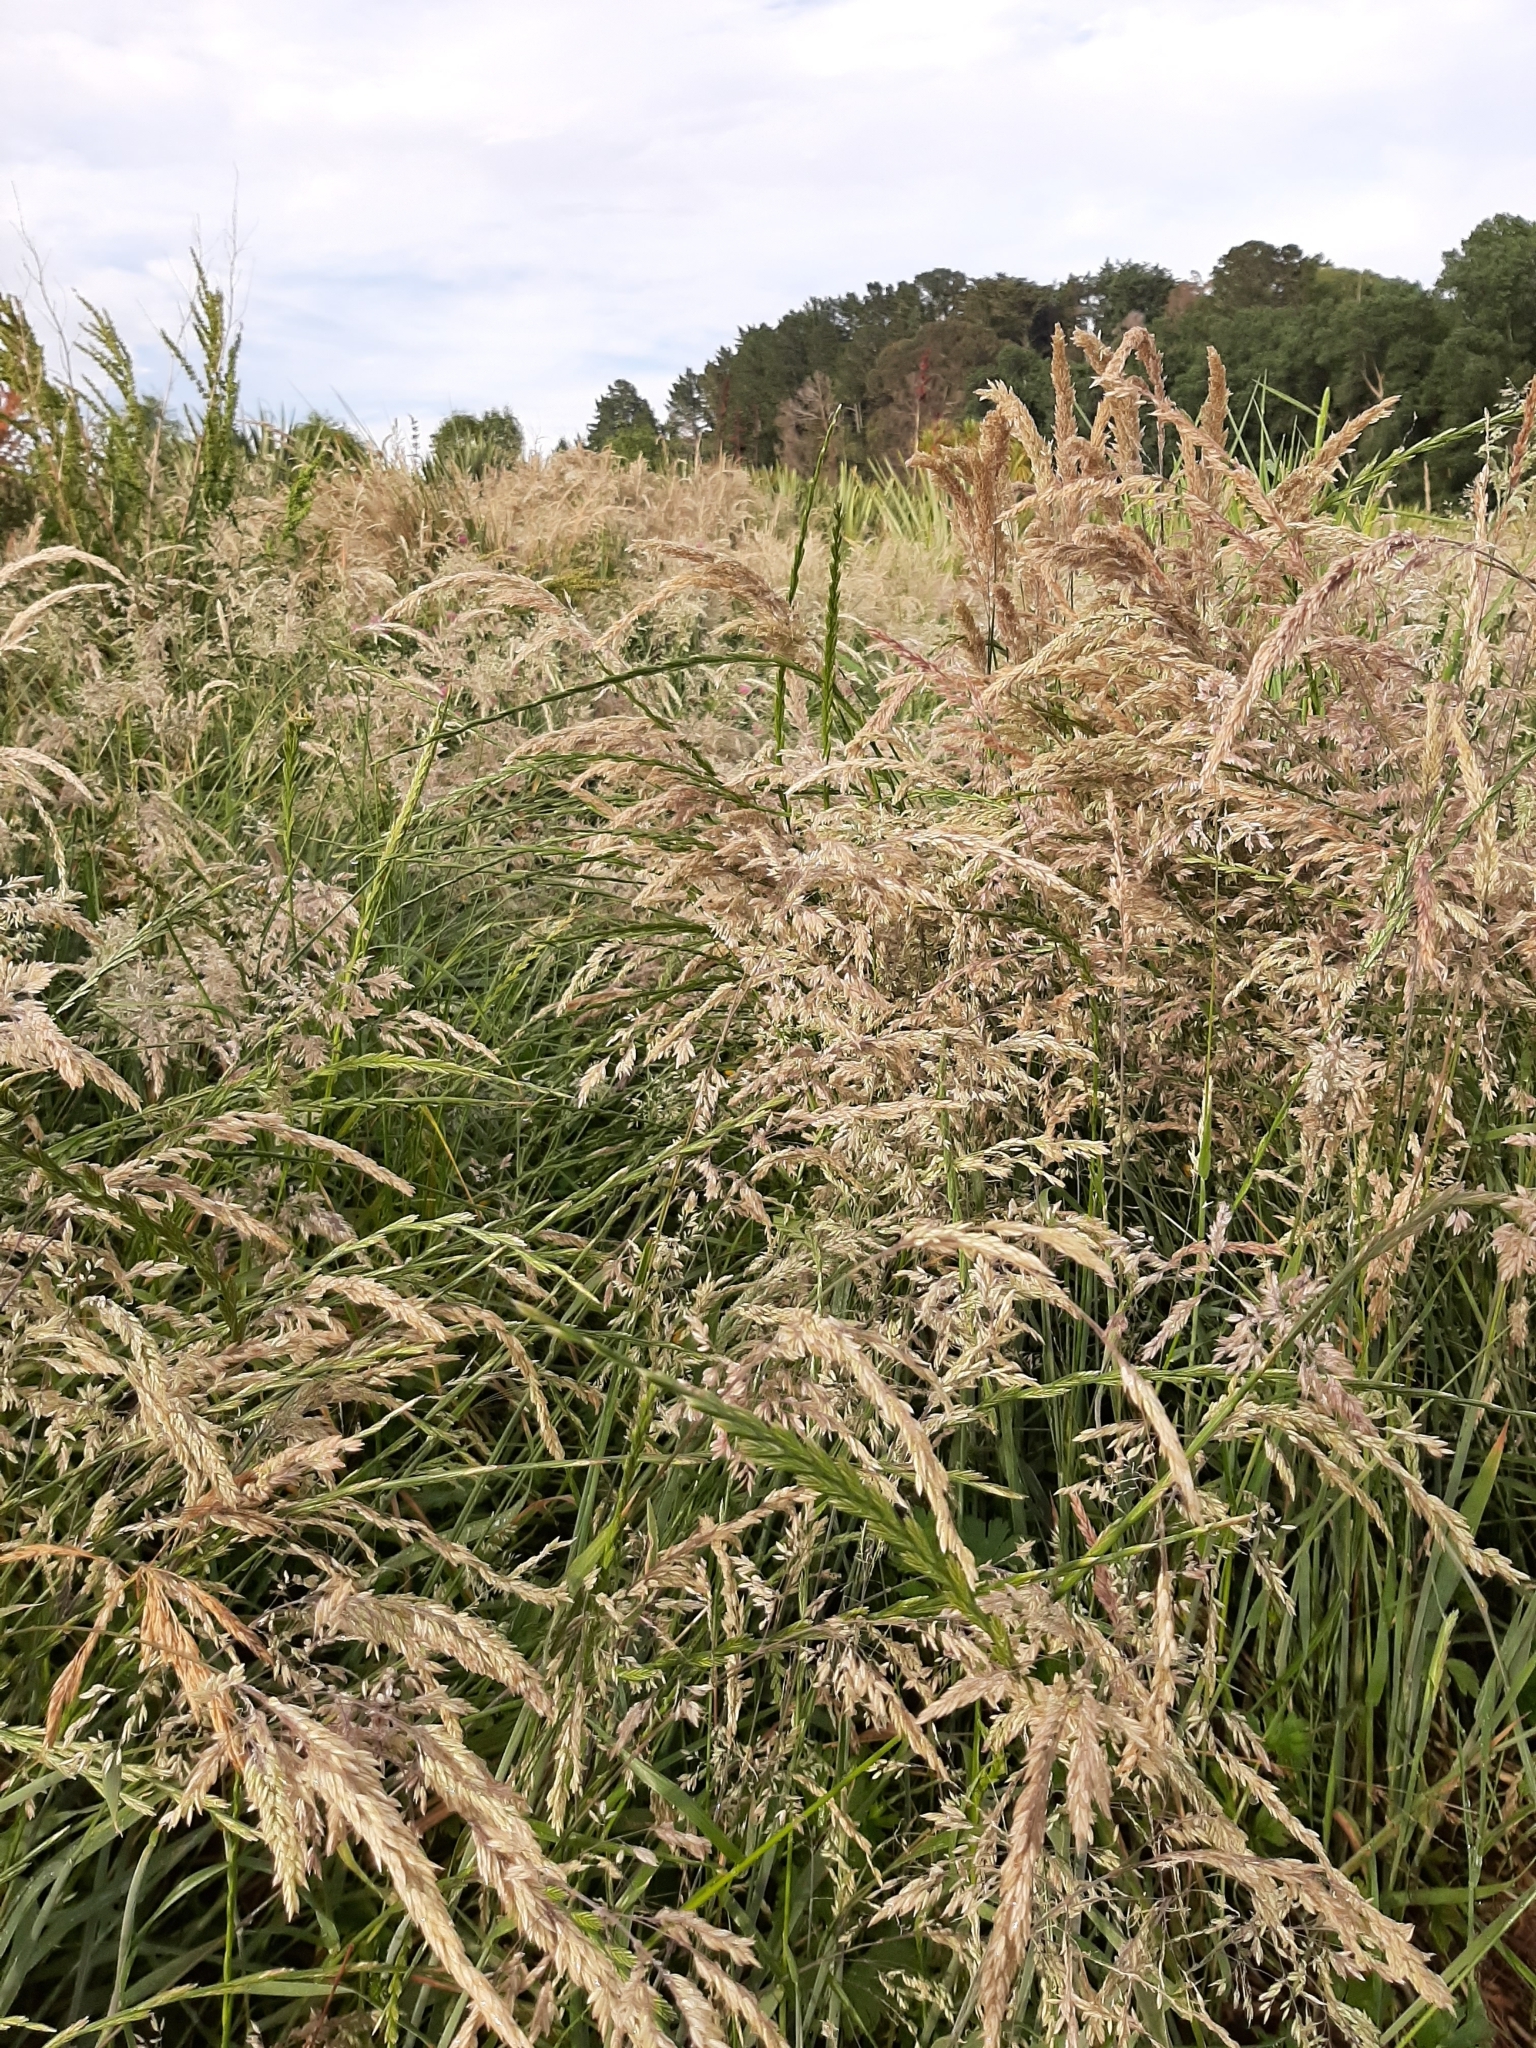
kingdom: Plantae
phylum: Tracheophyta
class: Liliopsida
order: Poales
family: Poaceae
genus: Holcus
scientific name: Holcus lanatus
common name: Yorkshire-fog
